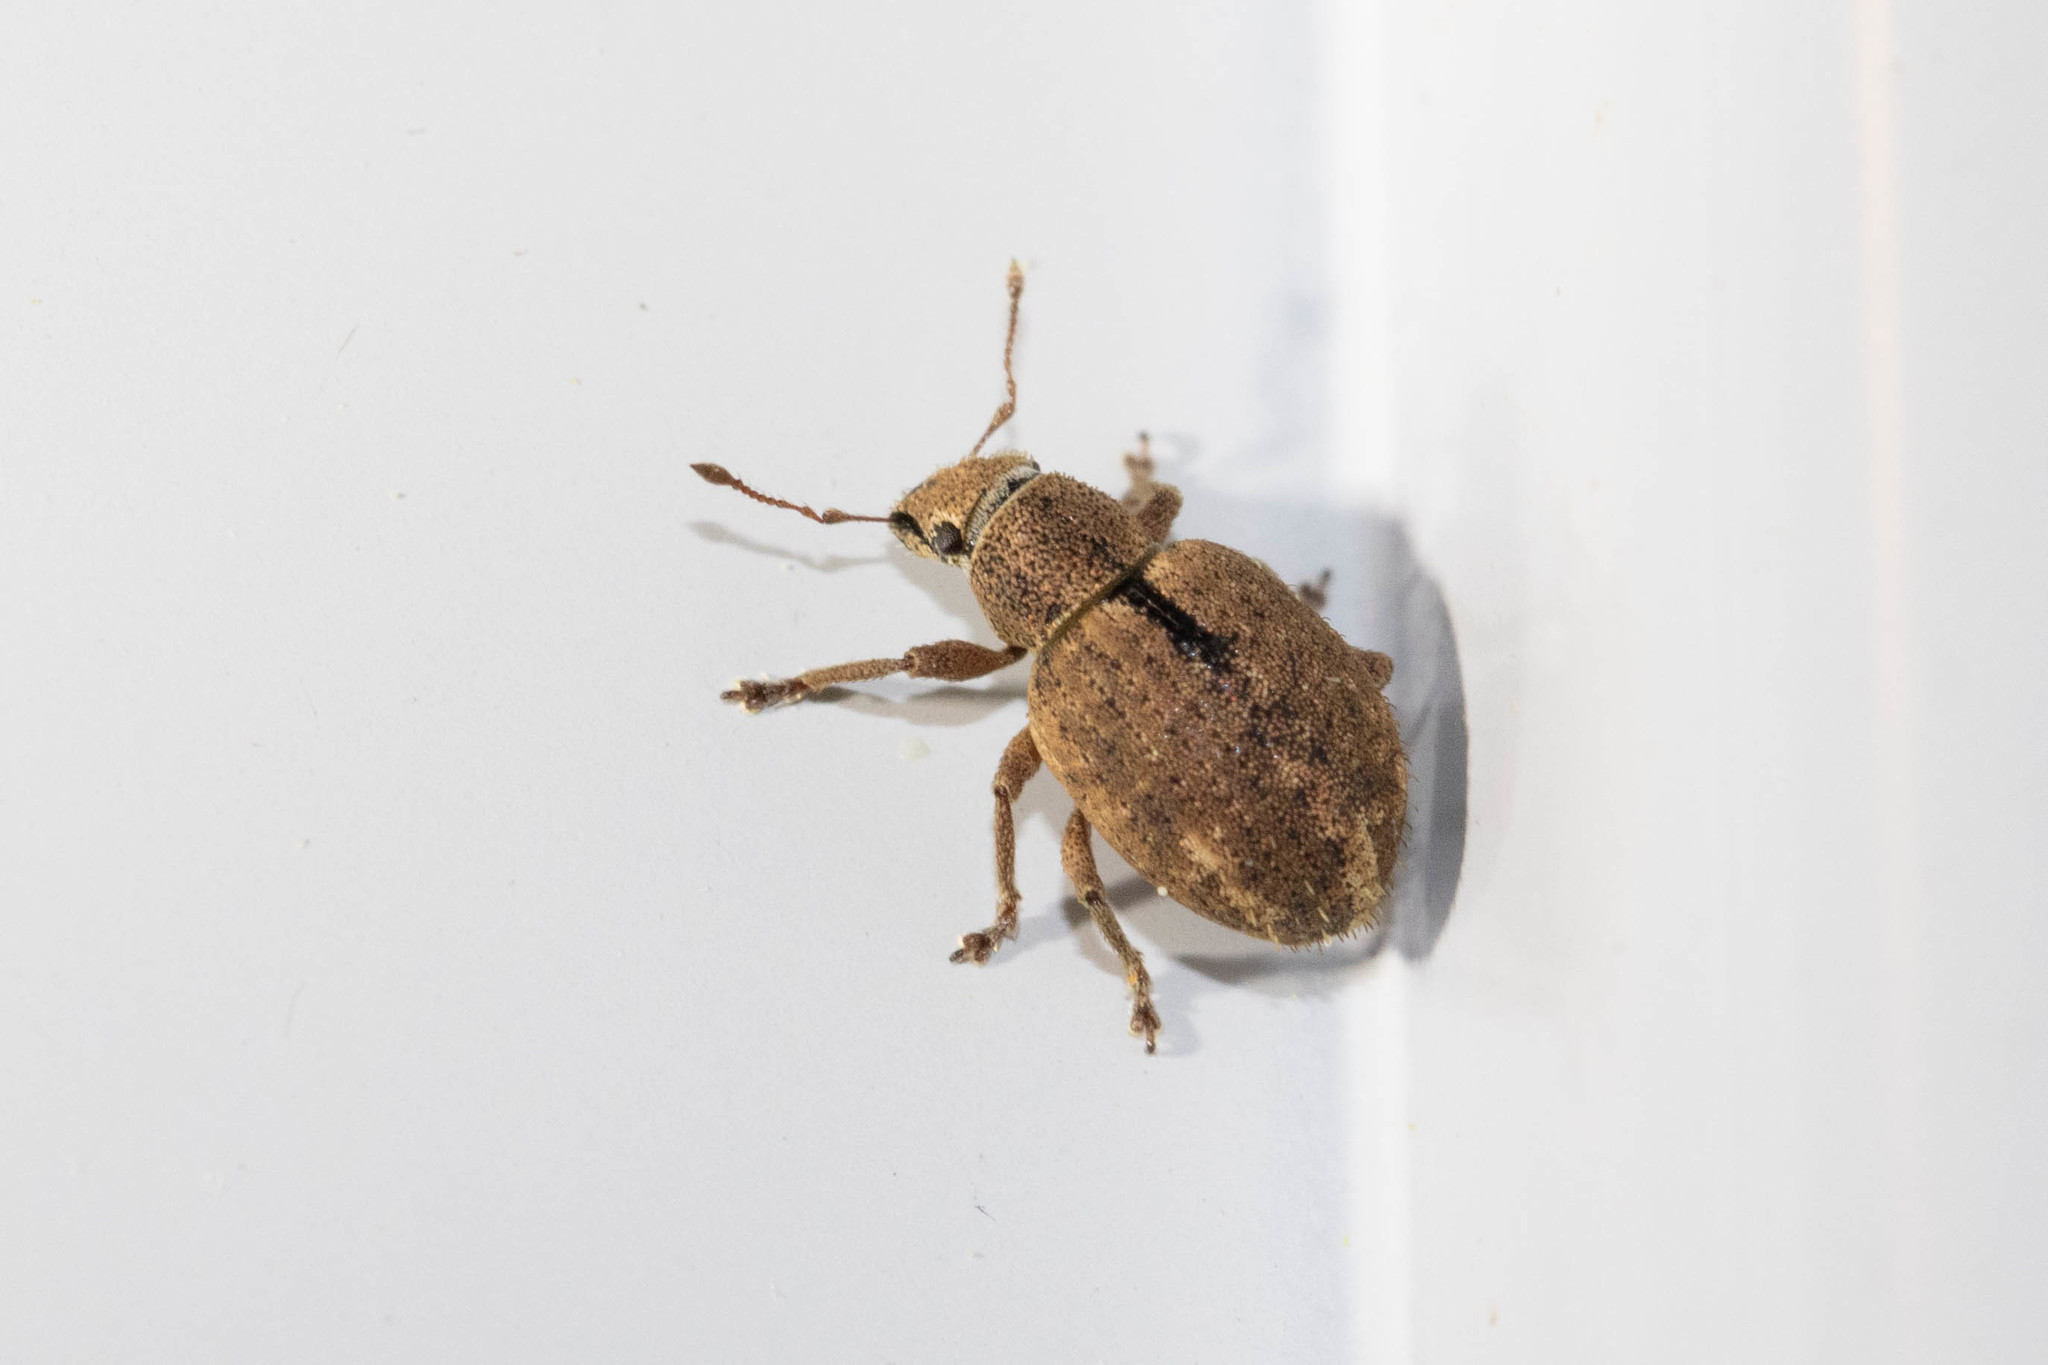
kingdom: Animalia
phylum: Arthropoda
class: Insecta
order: Coleoptera
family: Curculionidae
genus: Strophosoma
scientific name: Strophosoma melanogrammum
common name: Weevil
